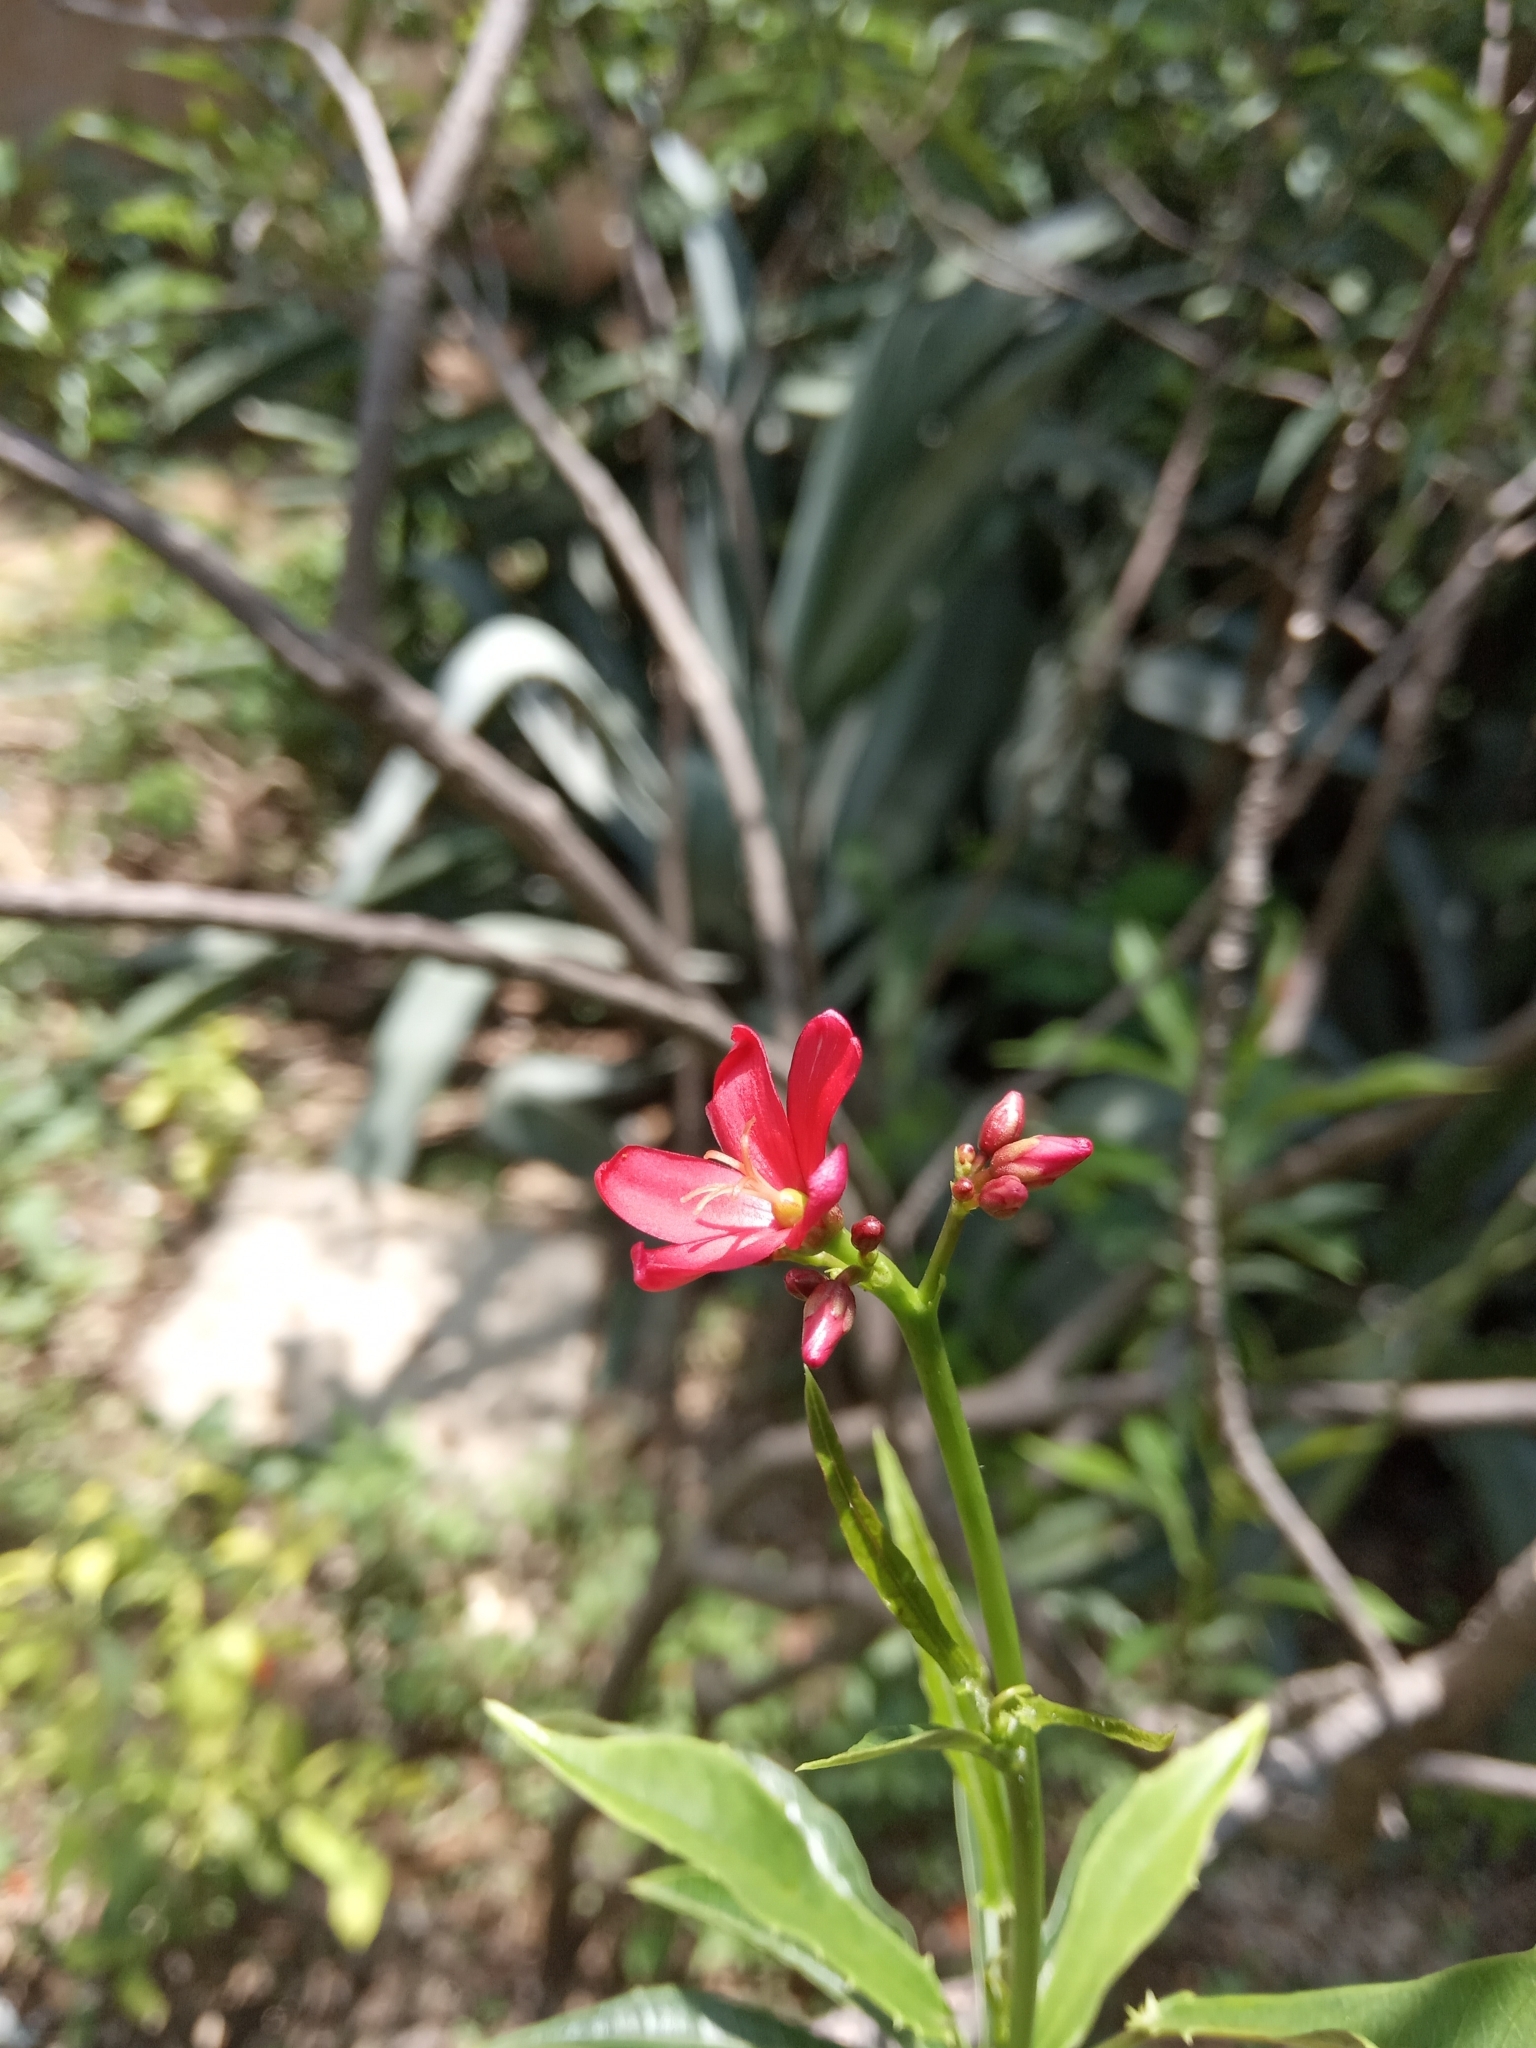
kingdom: Plantae
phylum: Tracheophyta
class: Magnoliopsida
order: Malpighiales
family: Euphorbiaceae
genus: Jatropha
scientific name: Jatropha integerrima
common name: Peregrina
